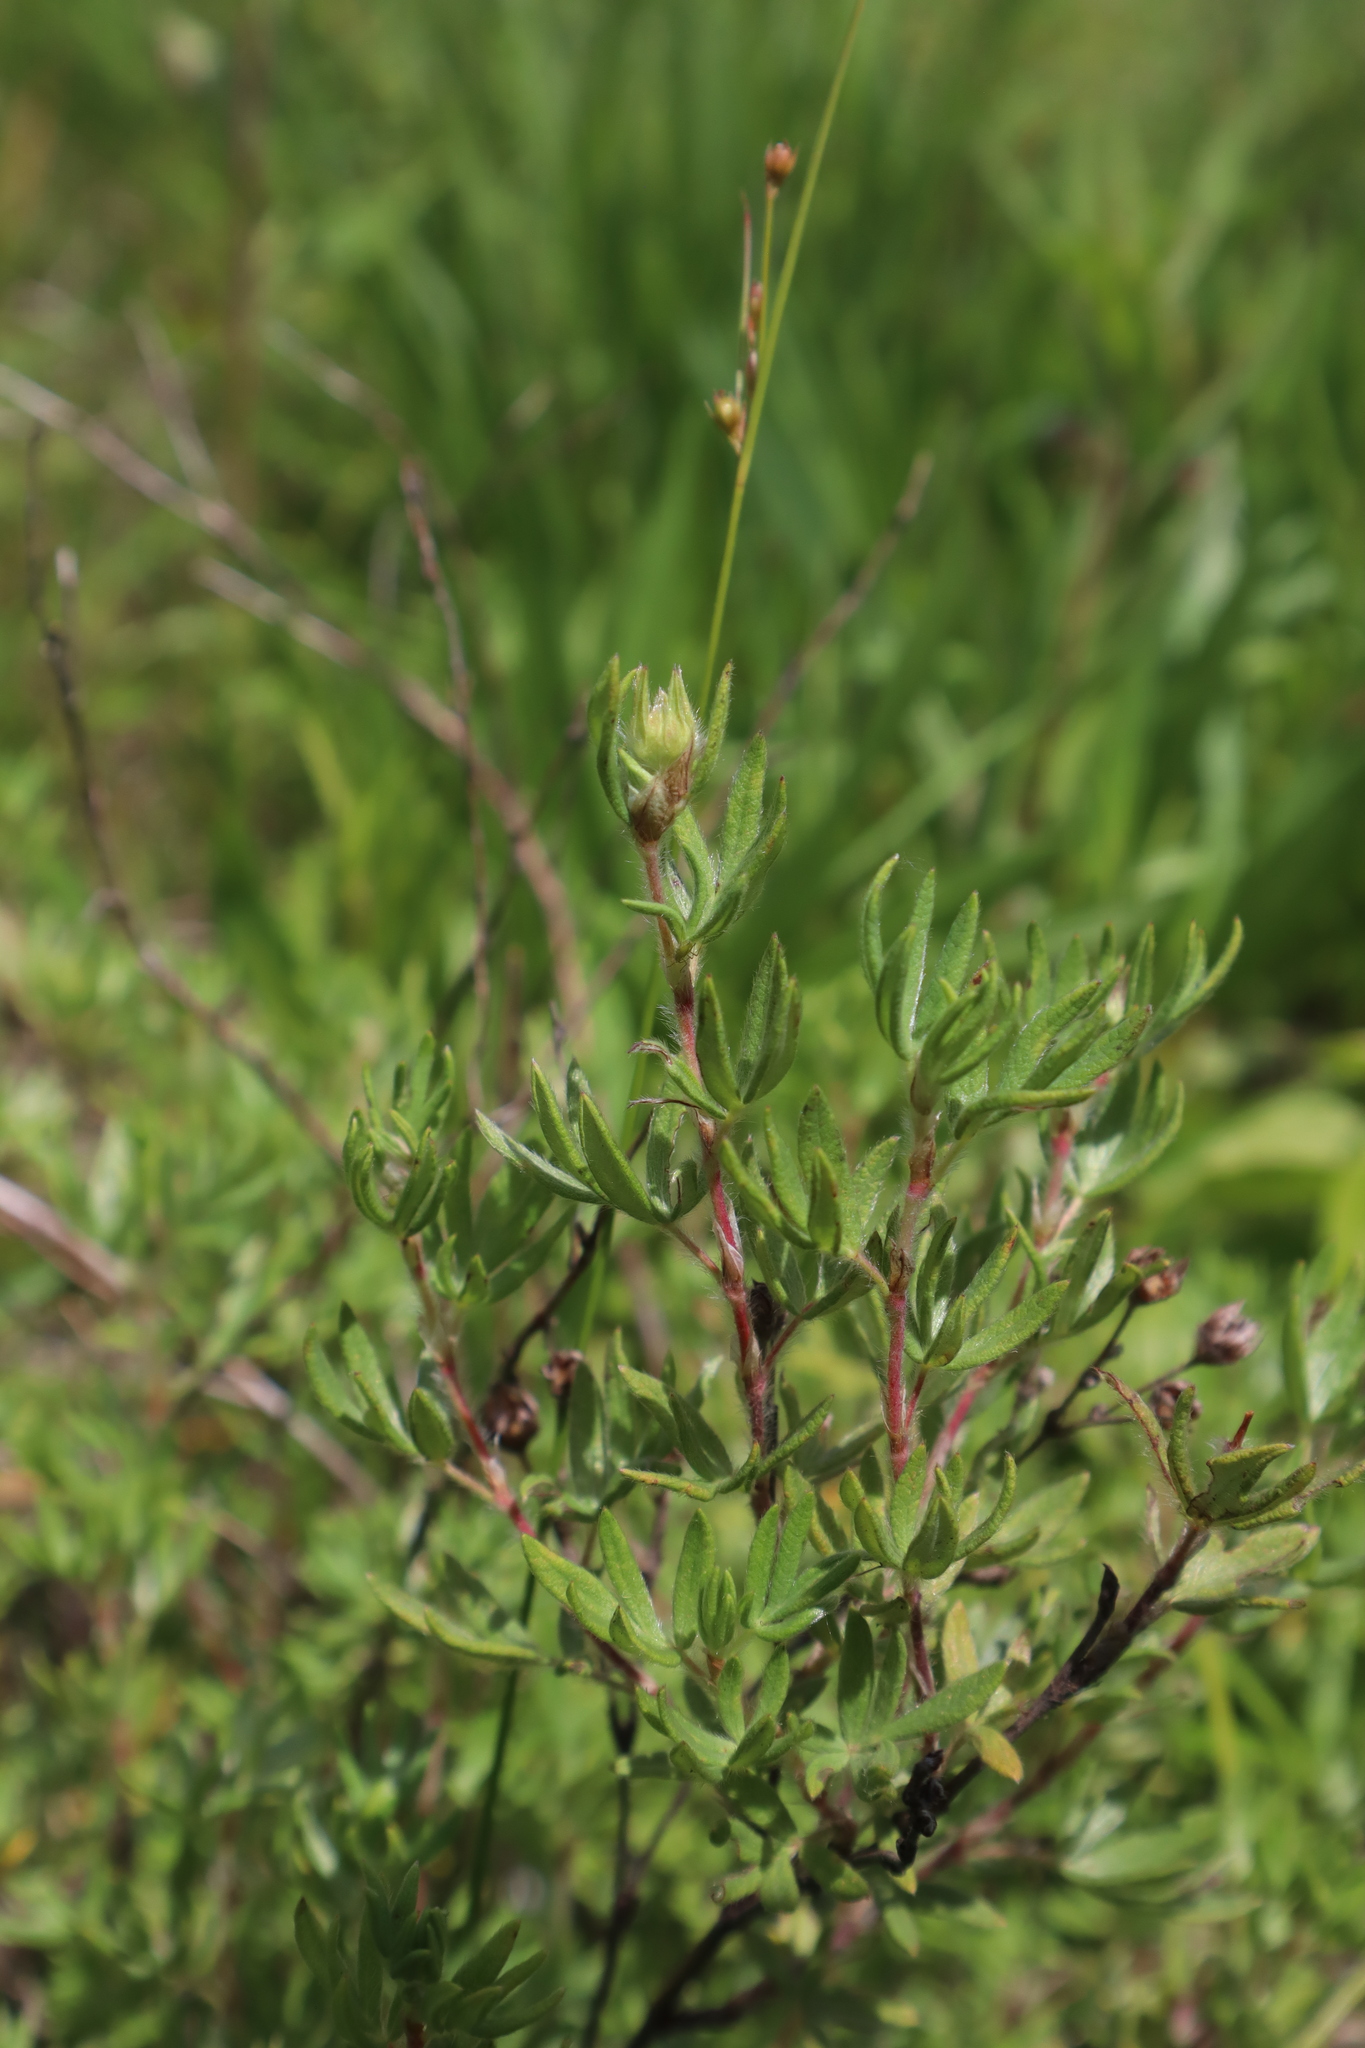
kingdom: Plantae
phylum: Tracheophyta
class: Magnoliopsida
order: Rosales
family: Rosaceae
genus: Dasiphora
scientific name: Dasiphora fruticosa
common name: Shrubby cinquefoil
